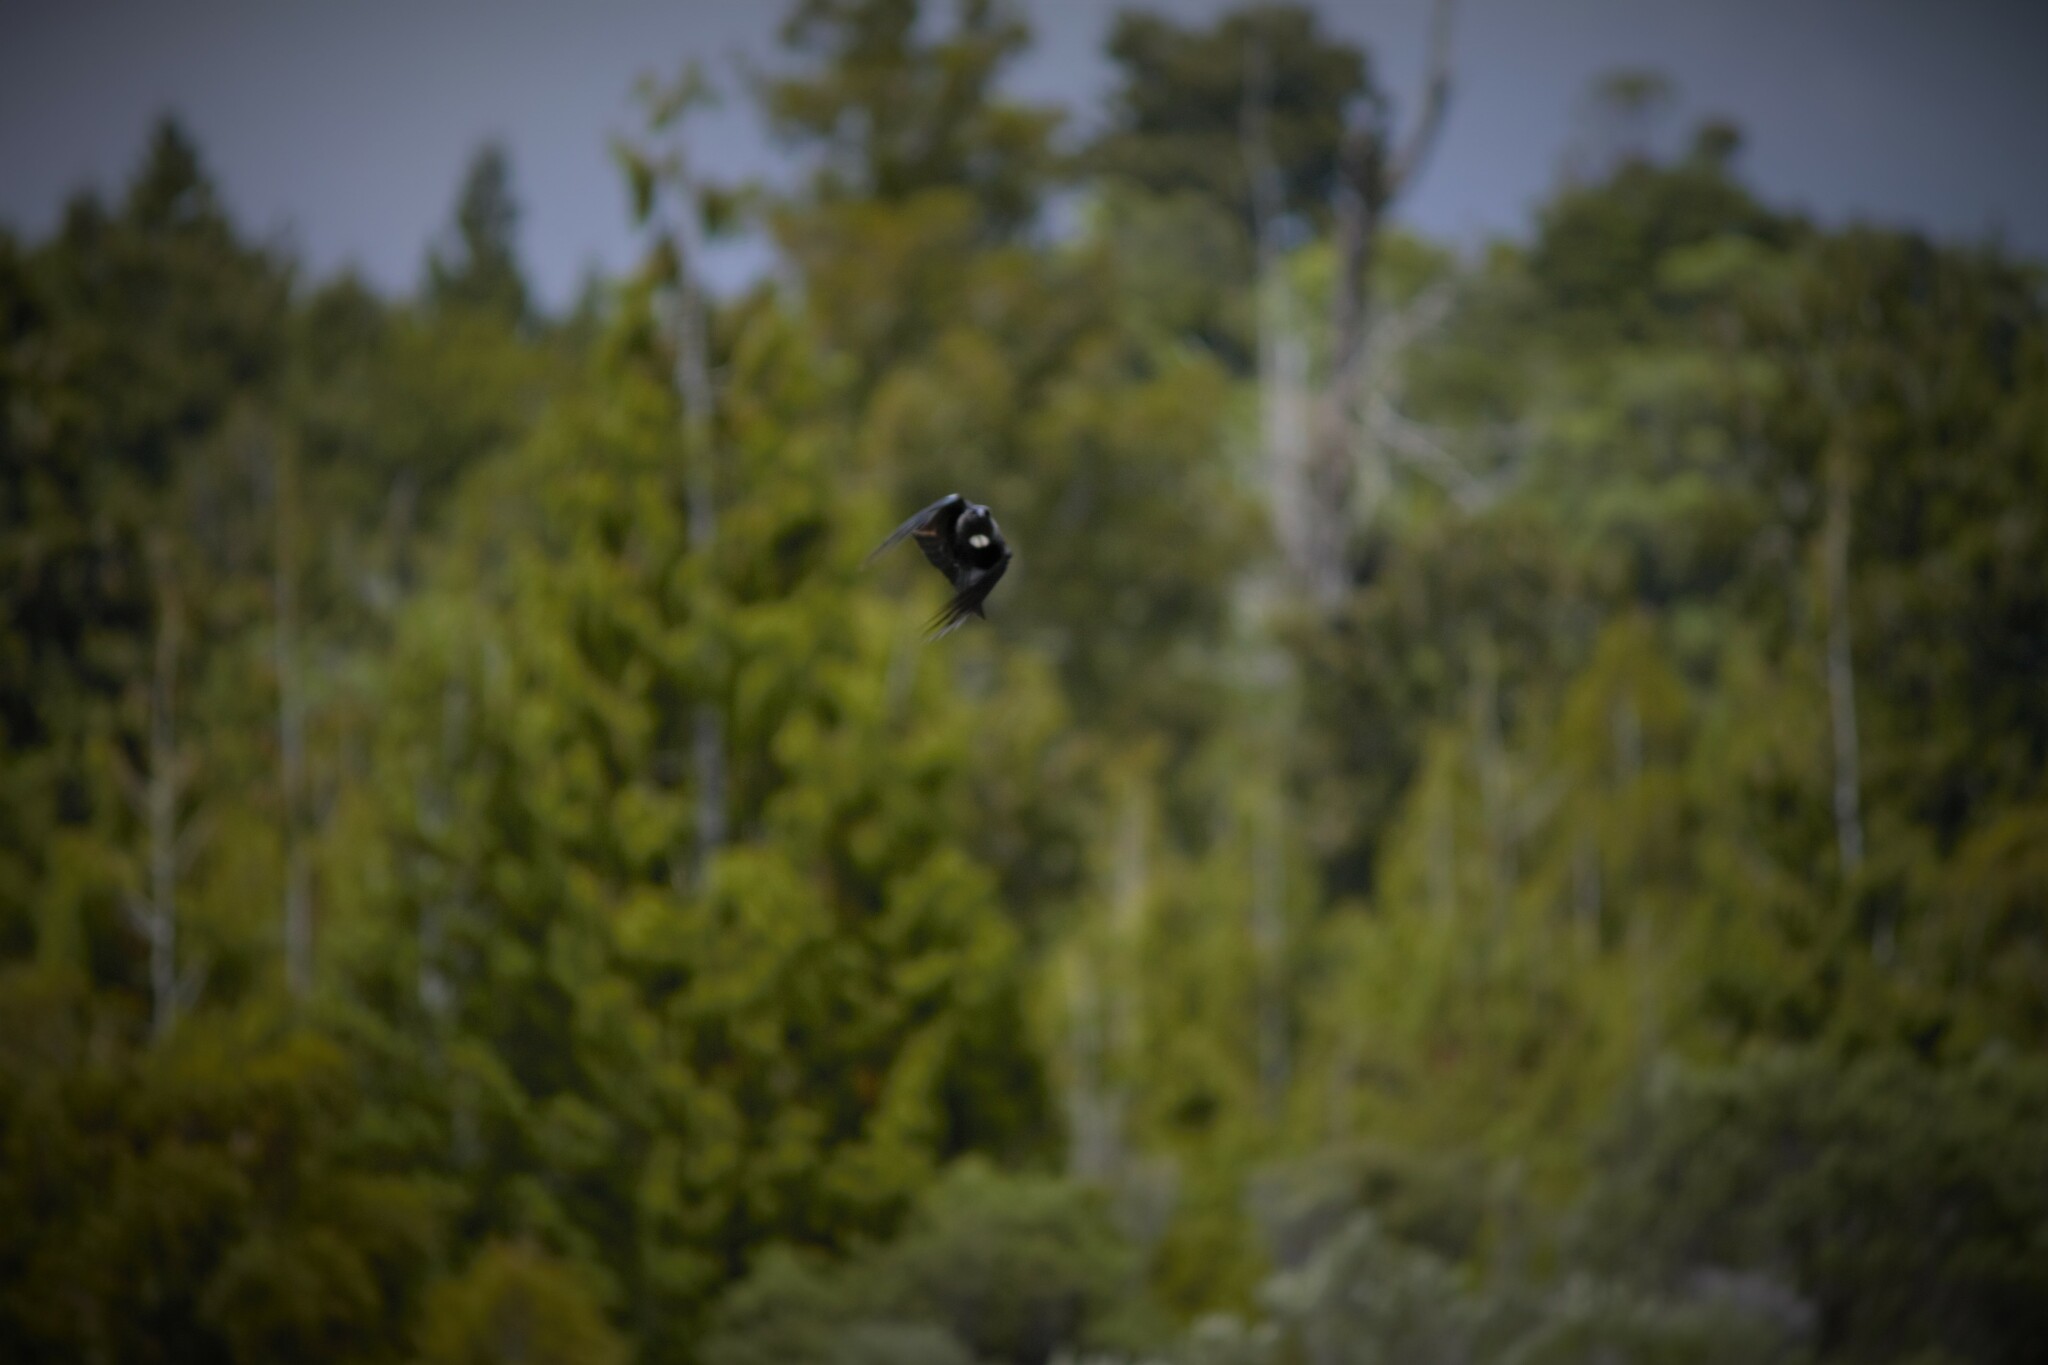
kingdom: Animalia
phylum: Chordata
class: Aves
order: Passeriformes
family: Meliphagidae
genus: Prosthemadera
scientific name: Prosthemadera novaeseelandiae
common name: Tui
